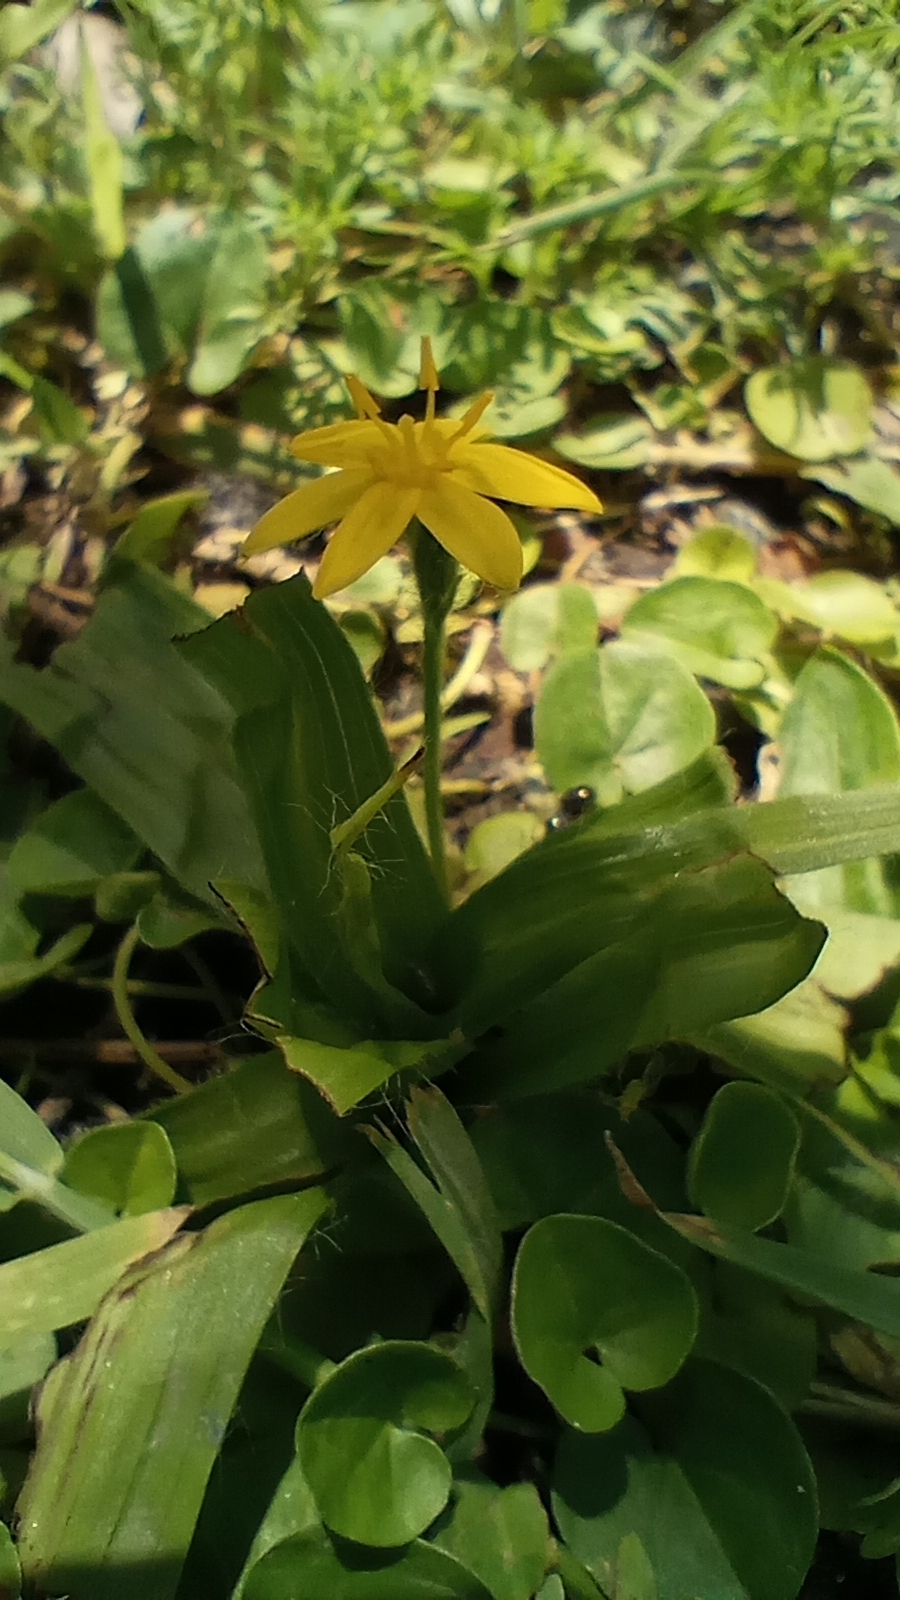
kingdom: Plantae
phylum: Tracheophyta
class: Liliopsida
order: Asparagales
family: Hypoxidaceae
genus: Hypoxis
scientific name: Hypoxis decumbens
